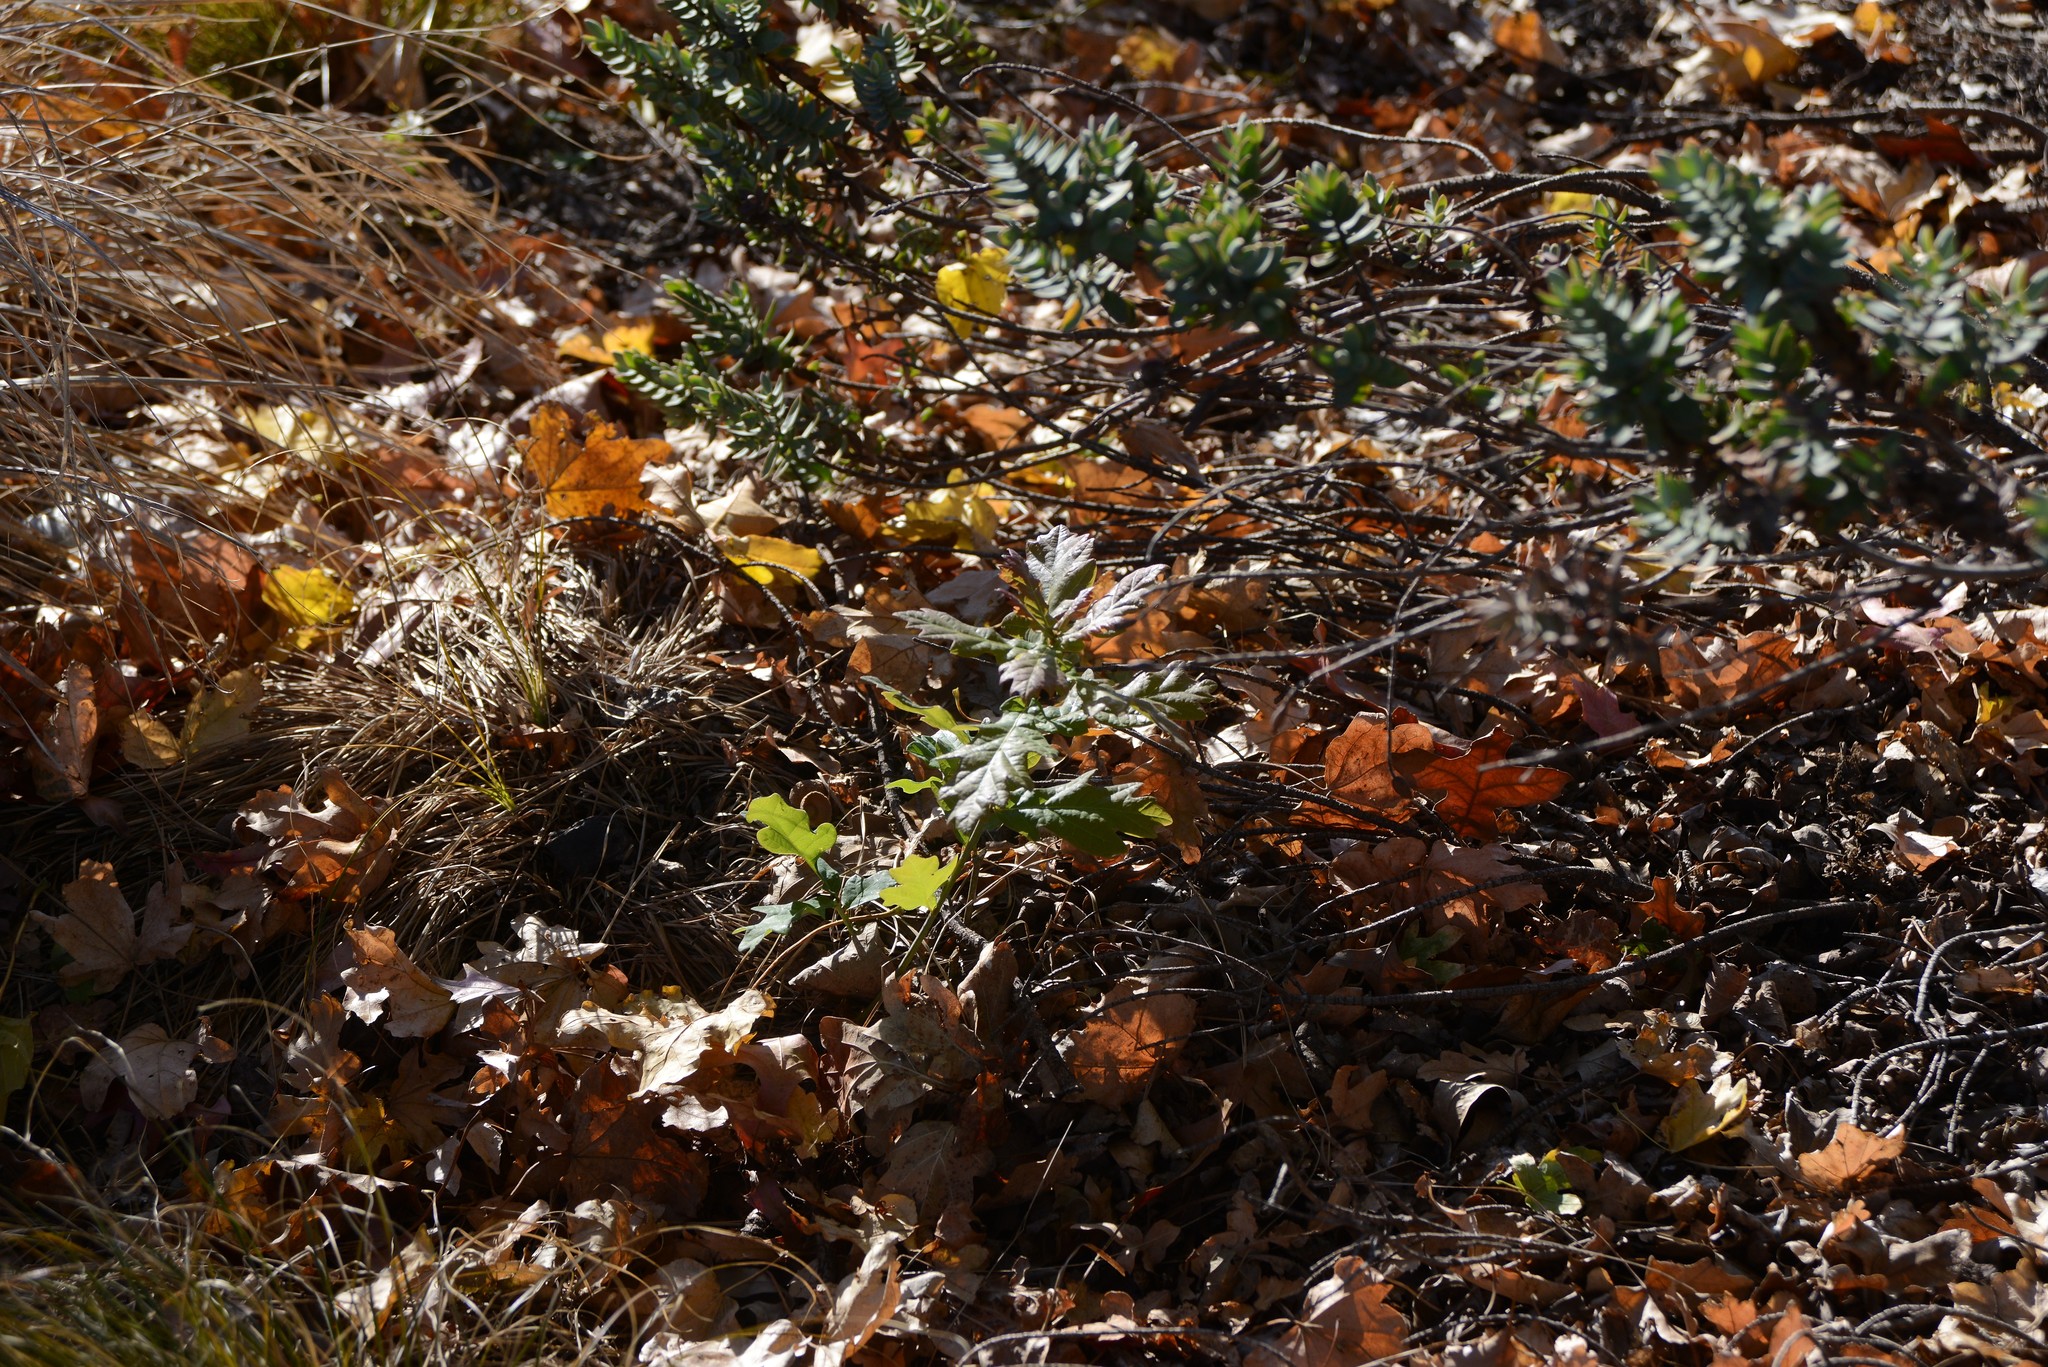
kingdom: Plantae
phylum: Tracheophyta
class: Magnoliopsida
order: Fagales
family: Fagaceae
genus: Quercus
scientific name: Quercus robur
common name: Pedunculate oak
